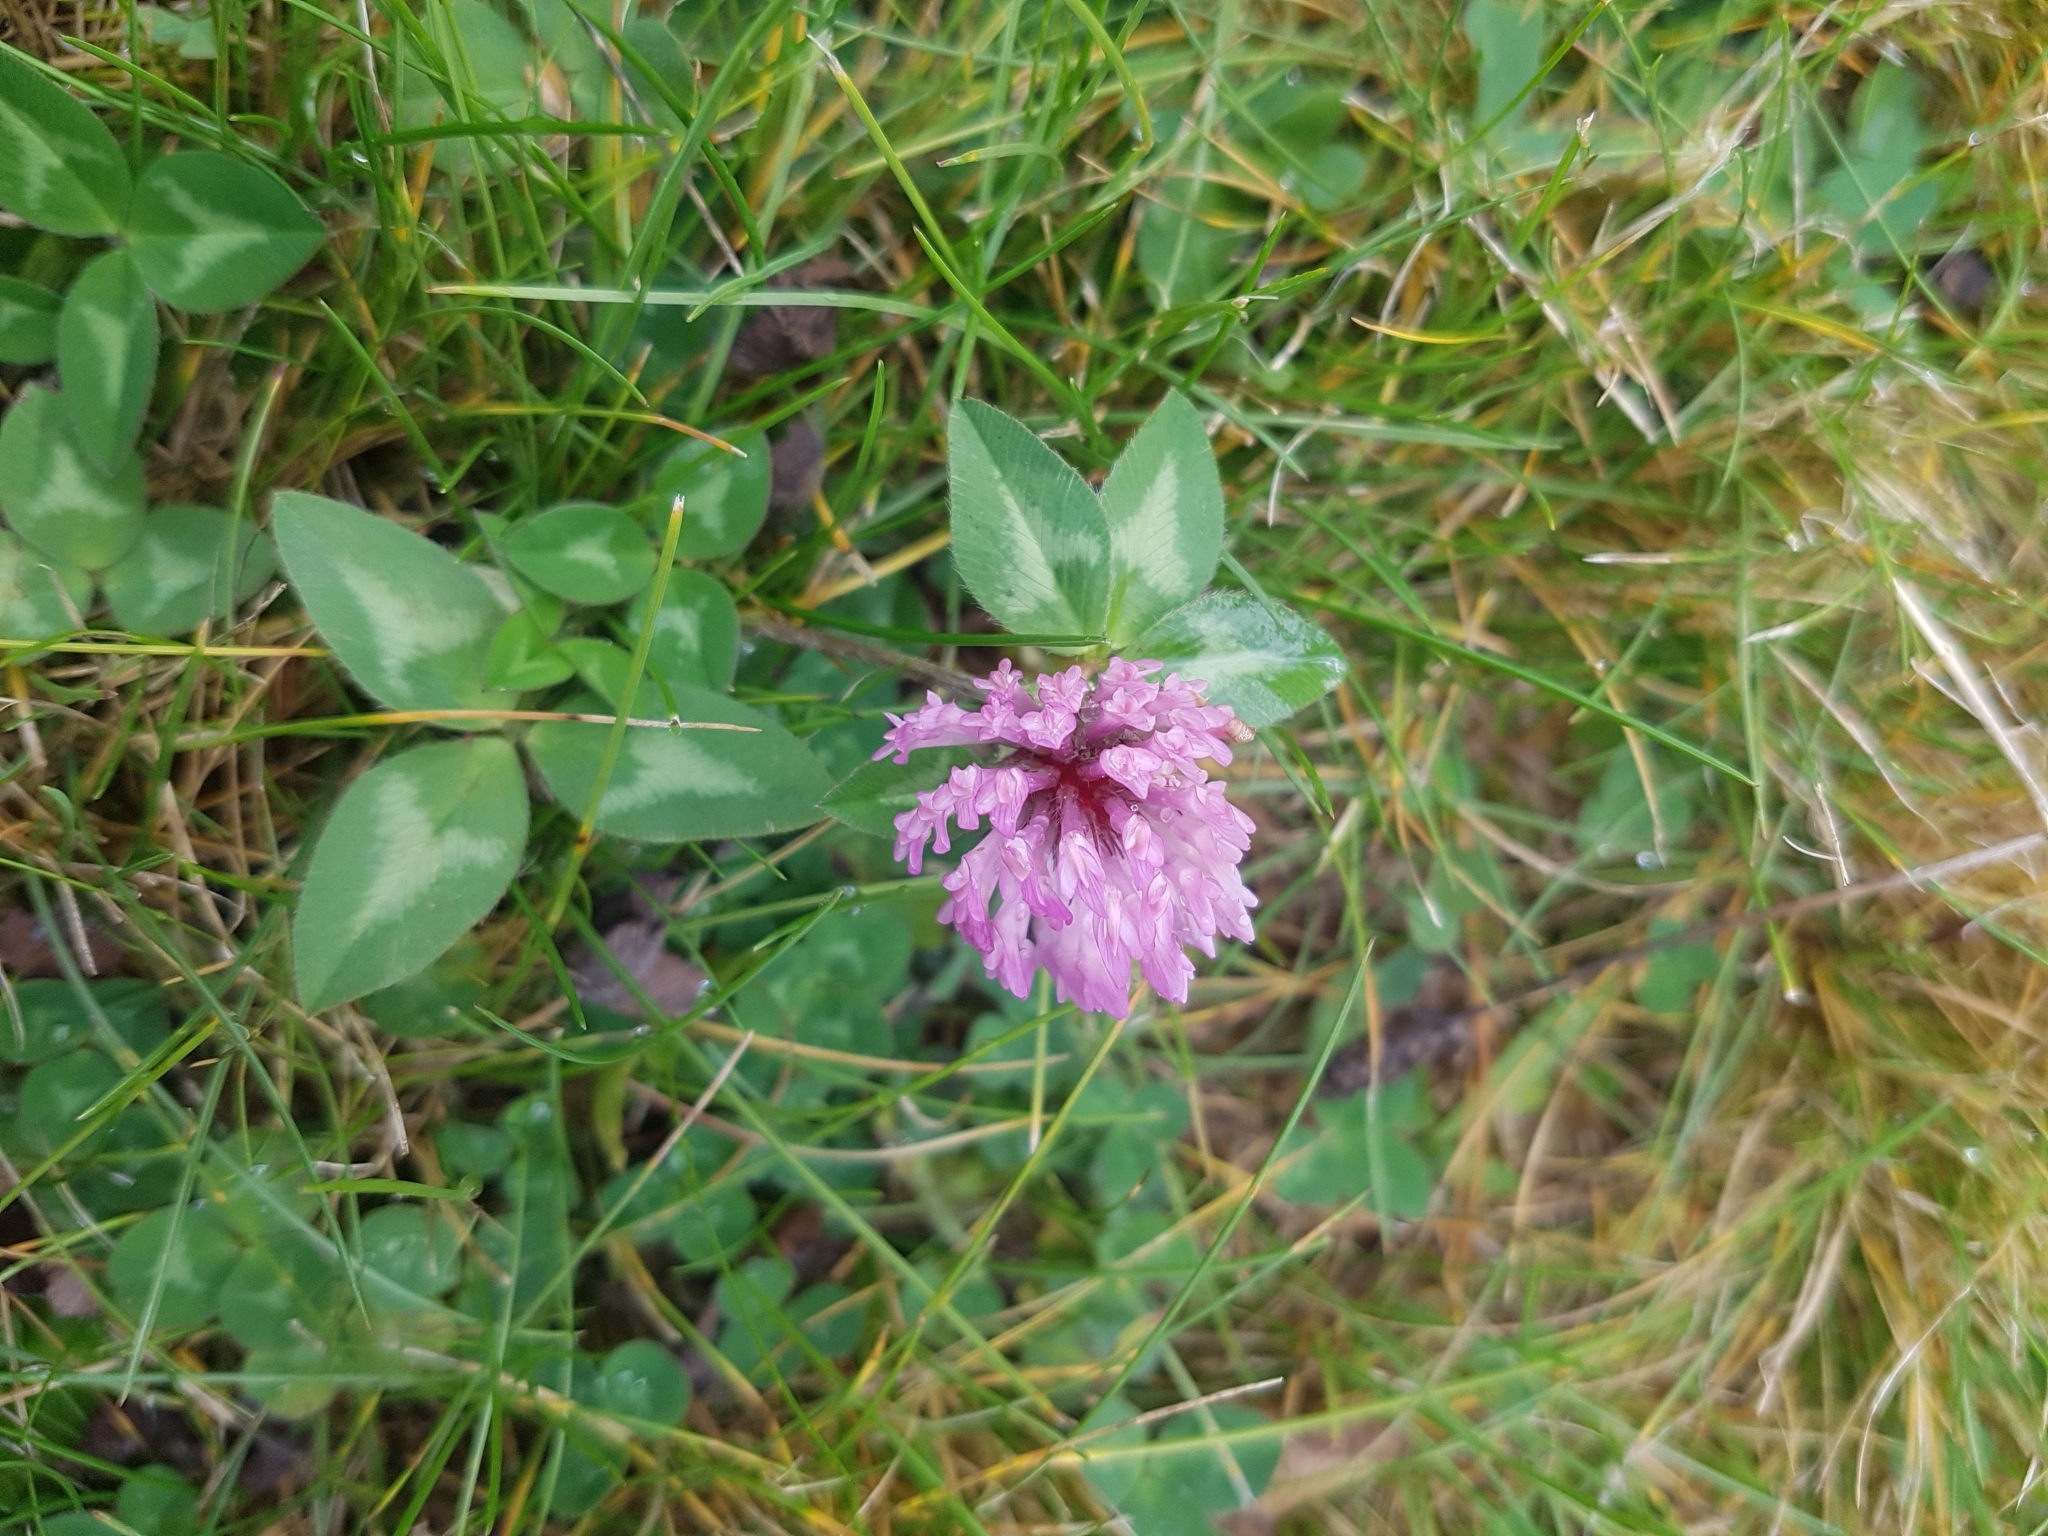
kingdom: Plantae
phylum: Tracheophyta
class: Magnoliopsida
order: Fabales
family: Fabaceae
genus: Trifolium
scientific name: Trifolium pratense
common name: Red clover
